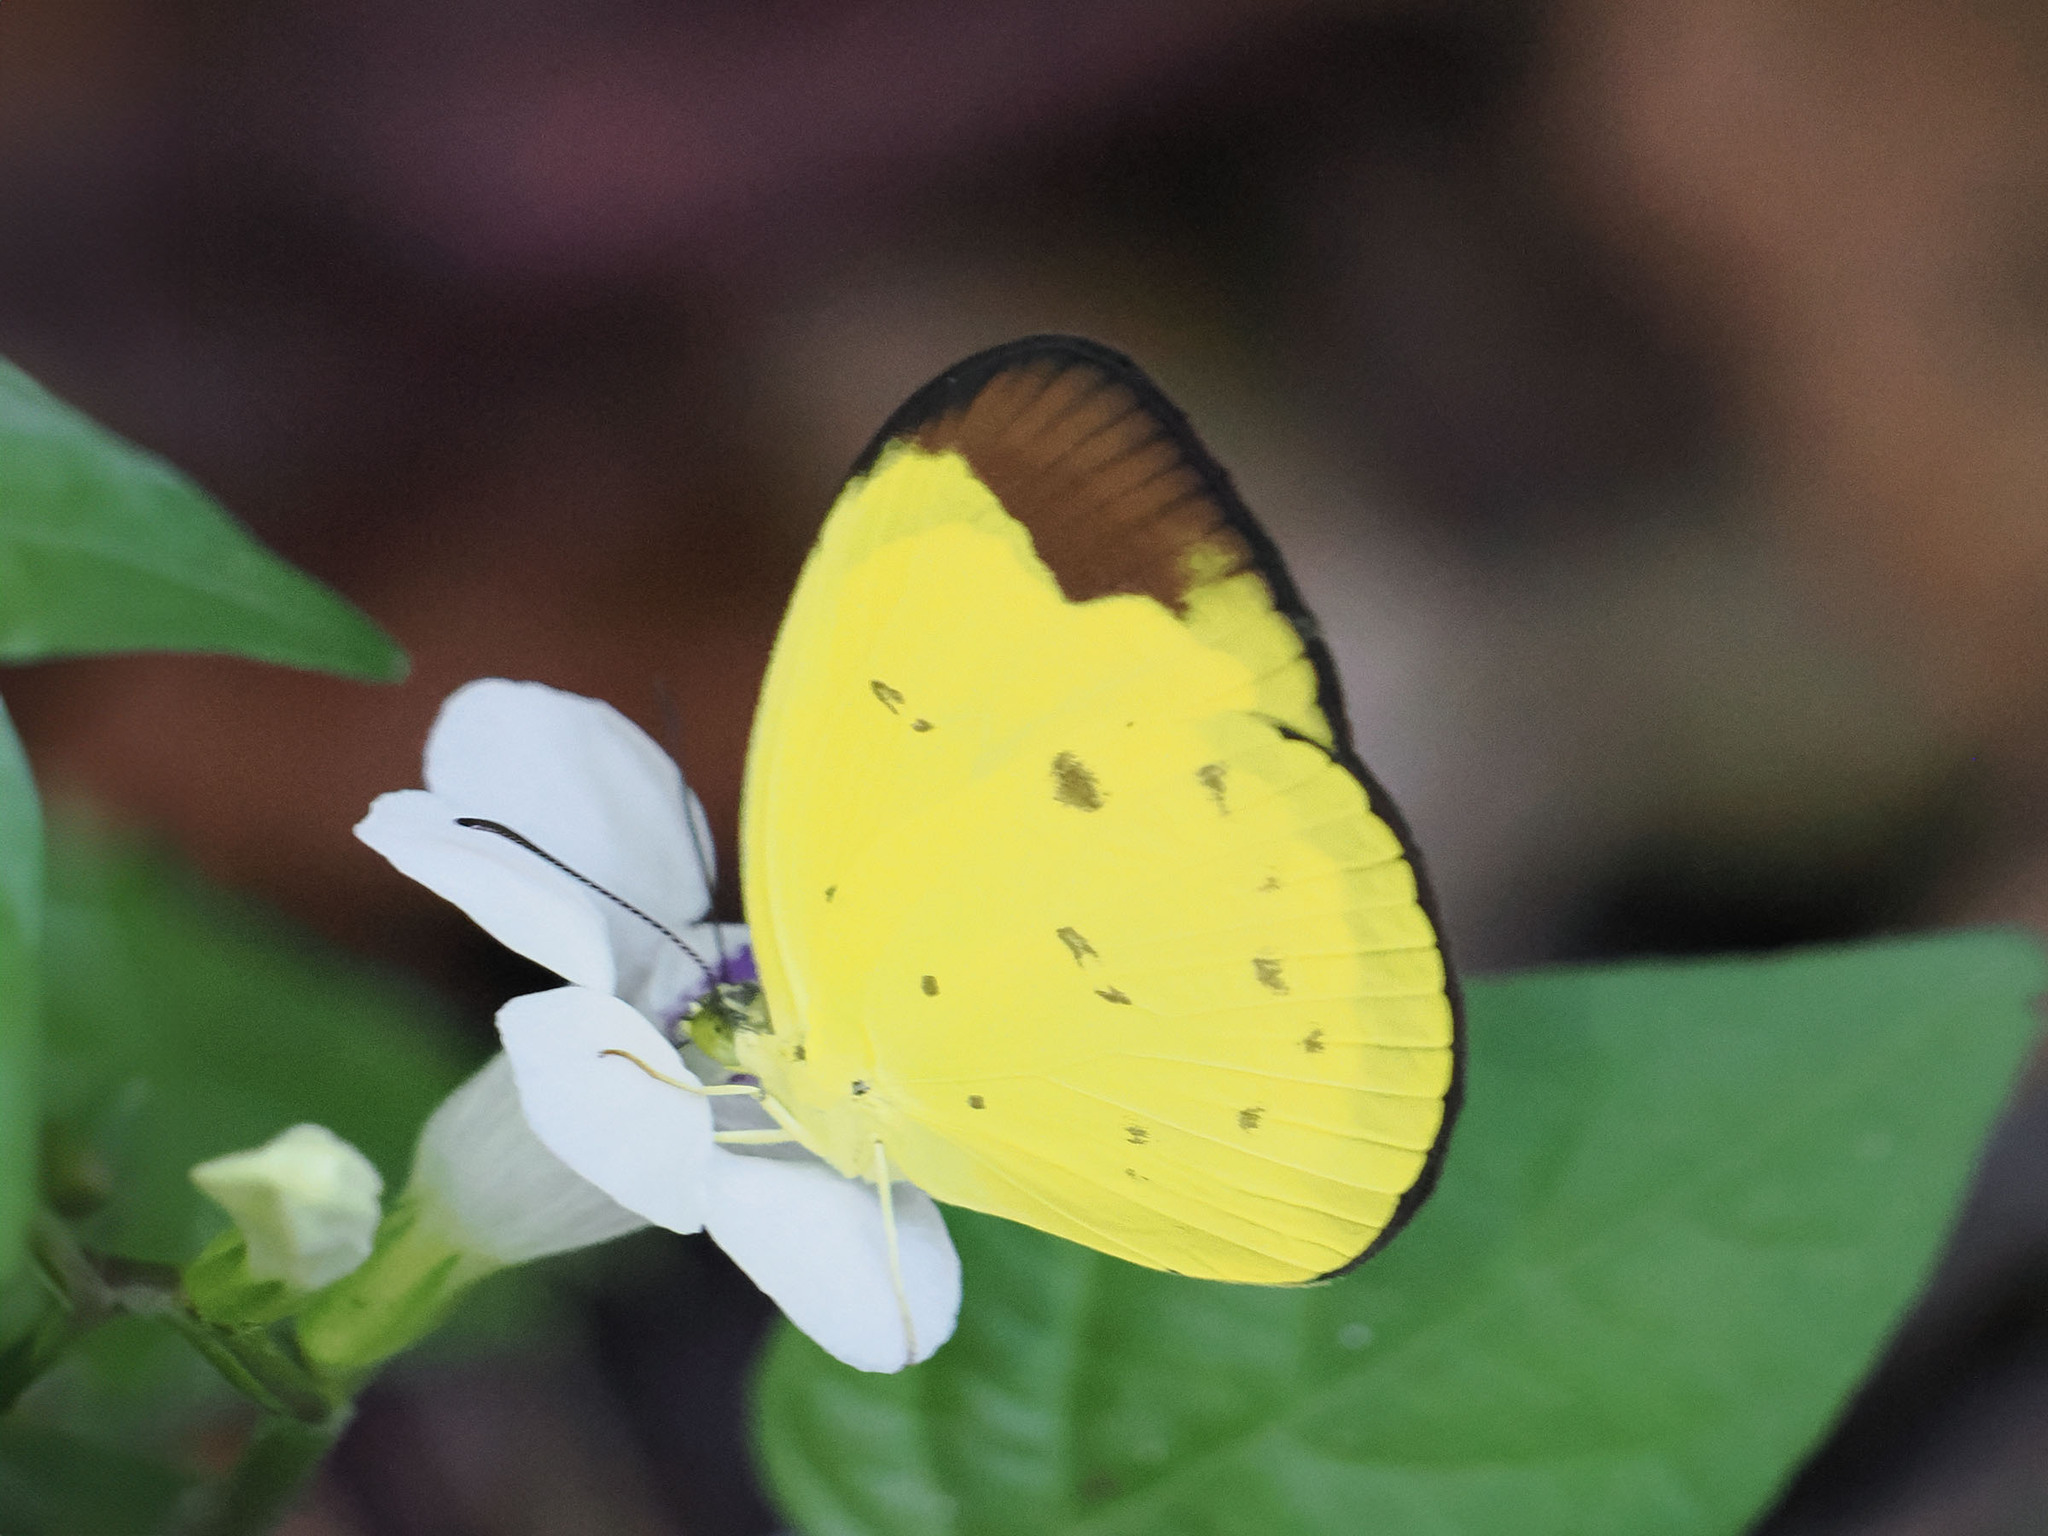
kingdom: Animalia
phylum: Arthropoda
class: Insecta
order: Lepidoptera
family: Pieridae
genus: Eurema
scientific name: Eurema sarilata
